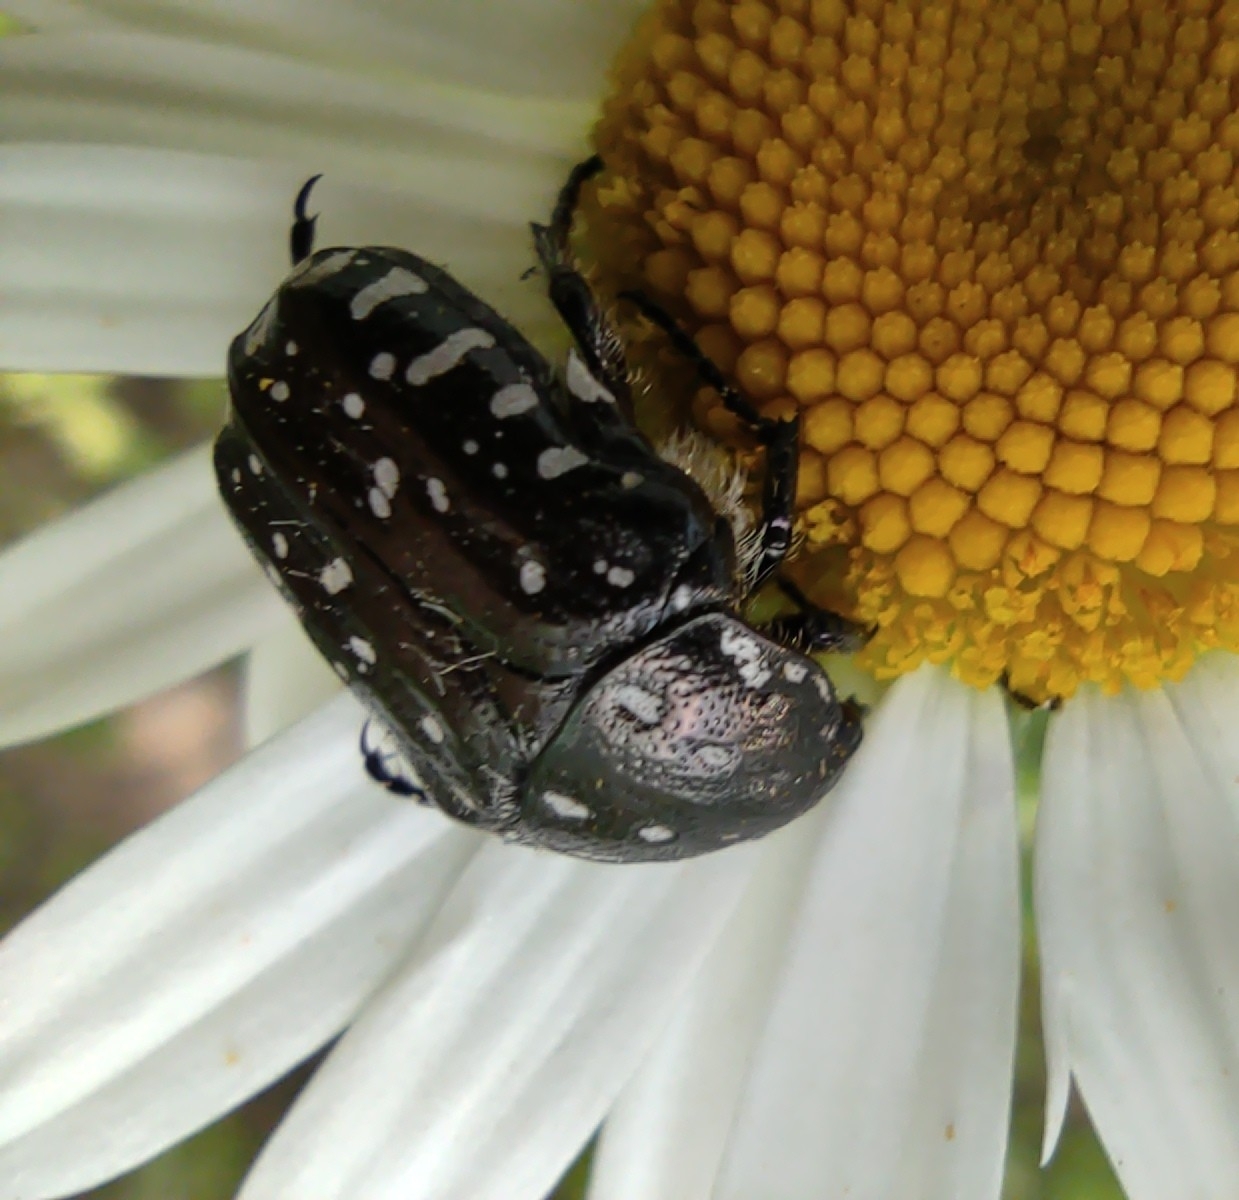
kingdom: Animalia
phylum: Arthropoda
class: Insecta
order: Coleoptera
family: Scarabaeidae
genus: Oxythyrea
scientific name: Oxythyrea funesta
